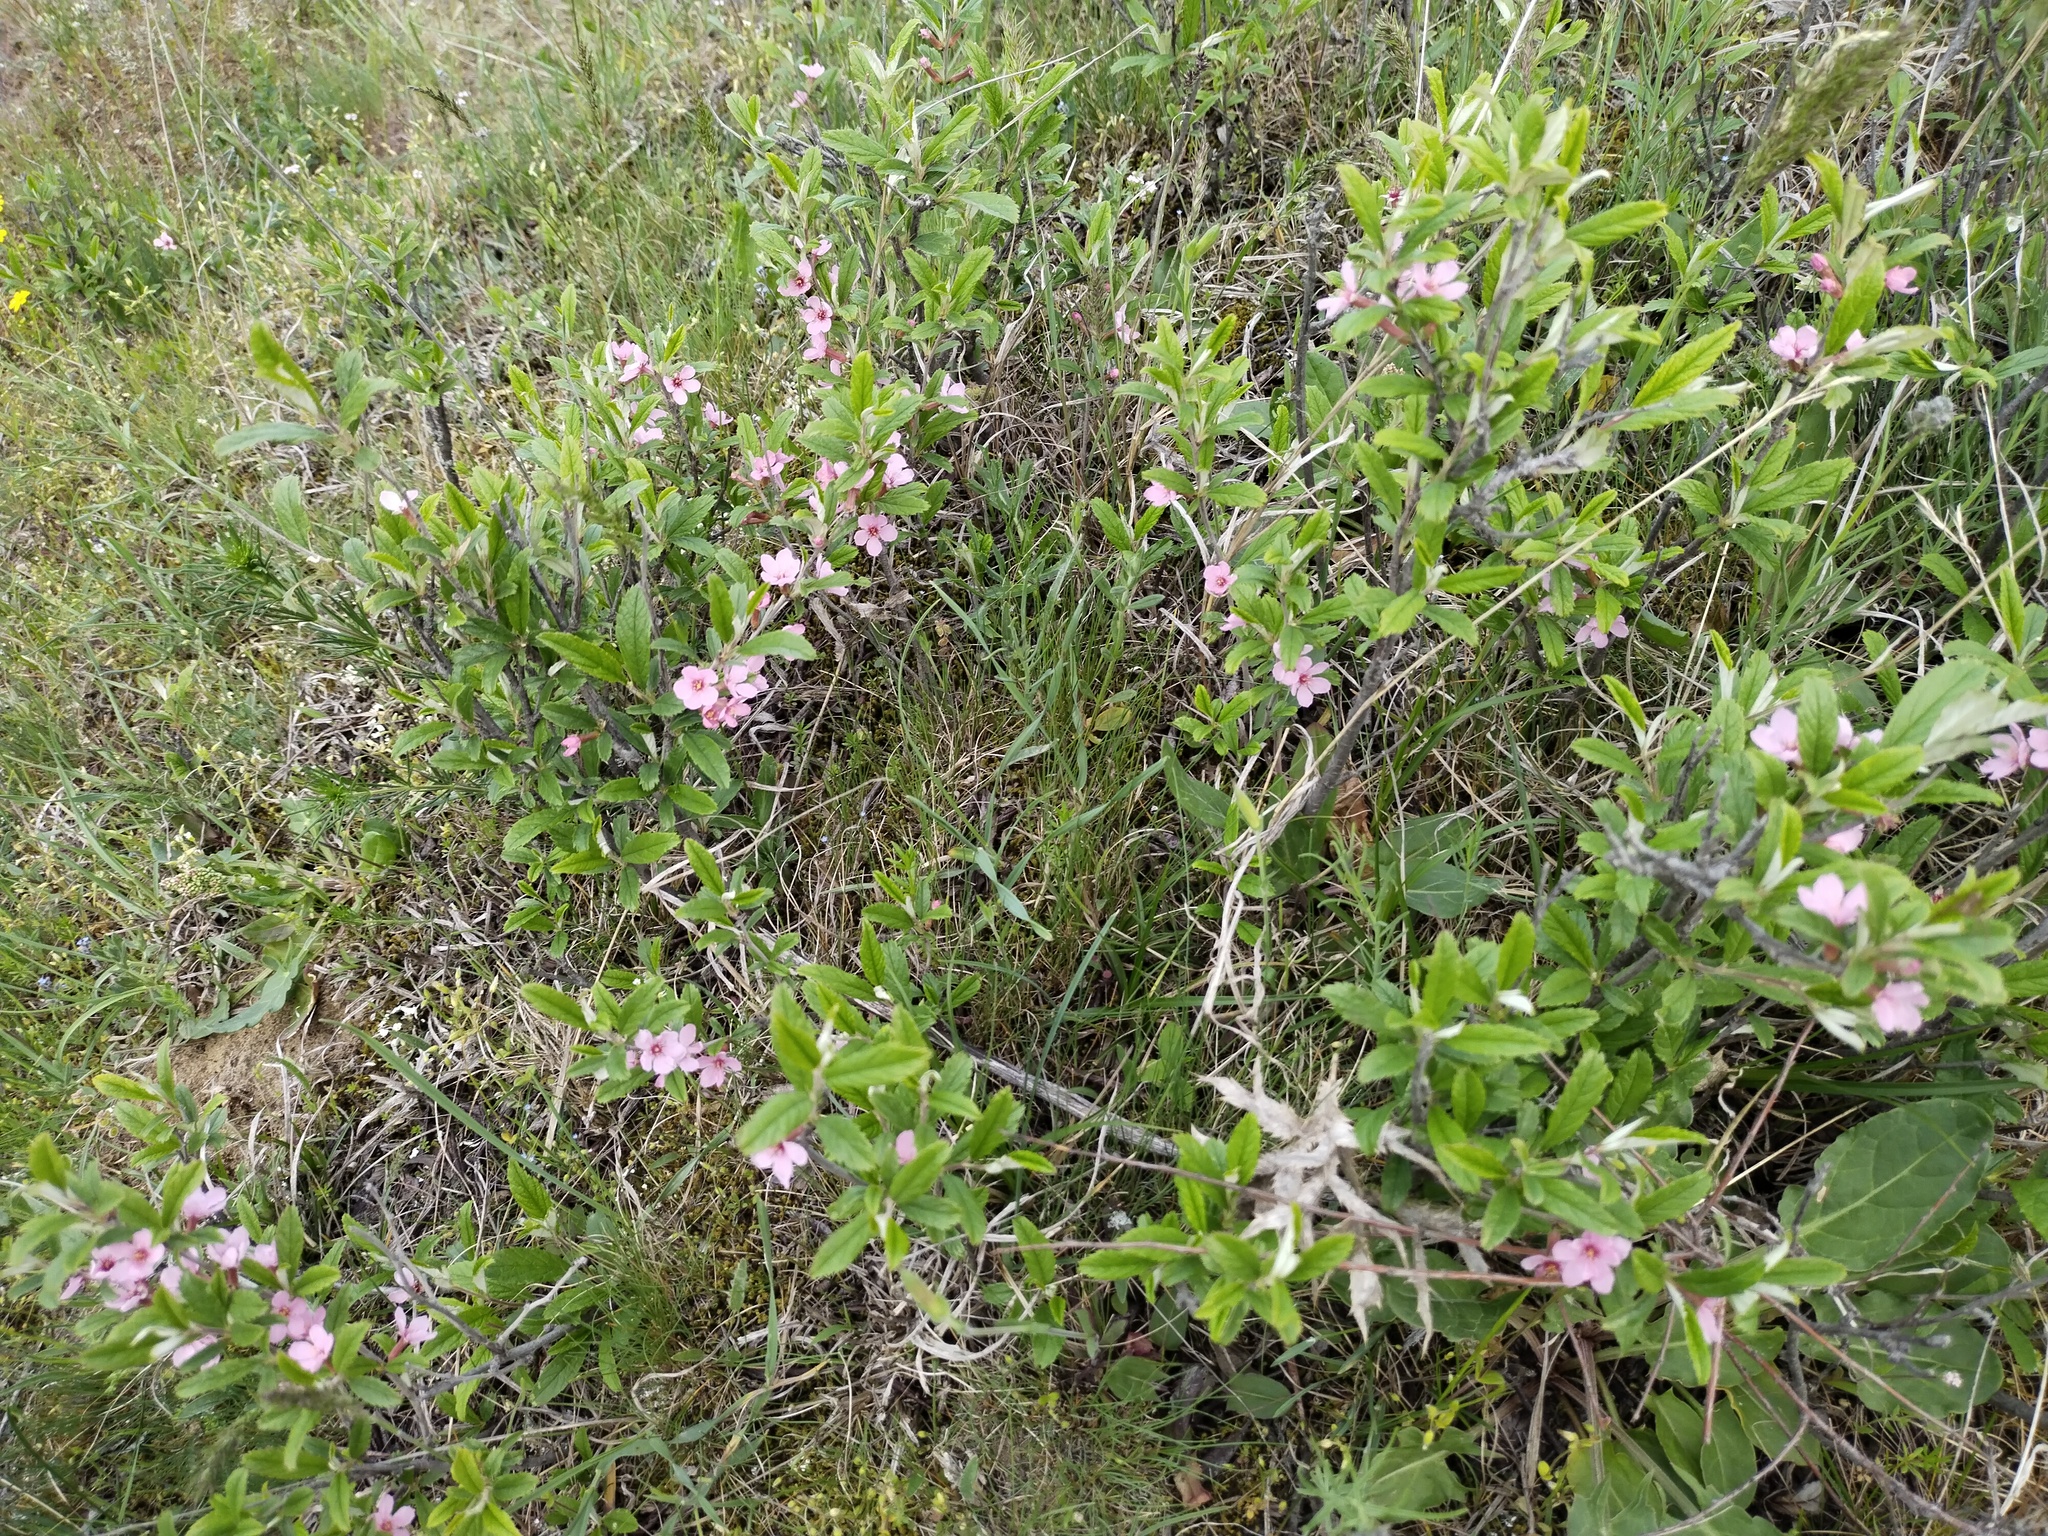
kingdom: Plantae
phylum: Tracheophyta
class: Magnoliopsida
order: Rosales
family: Rosaceae
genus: Prunus
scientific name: Prunus tenella
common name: Dwarf russian almond
